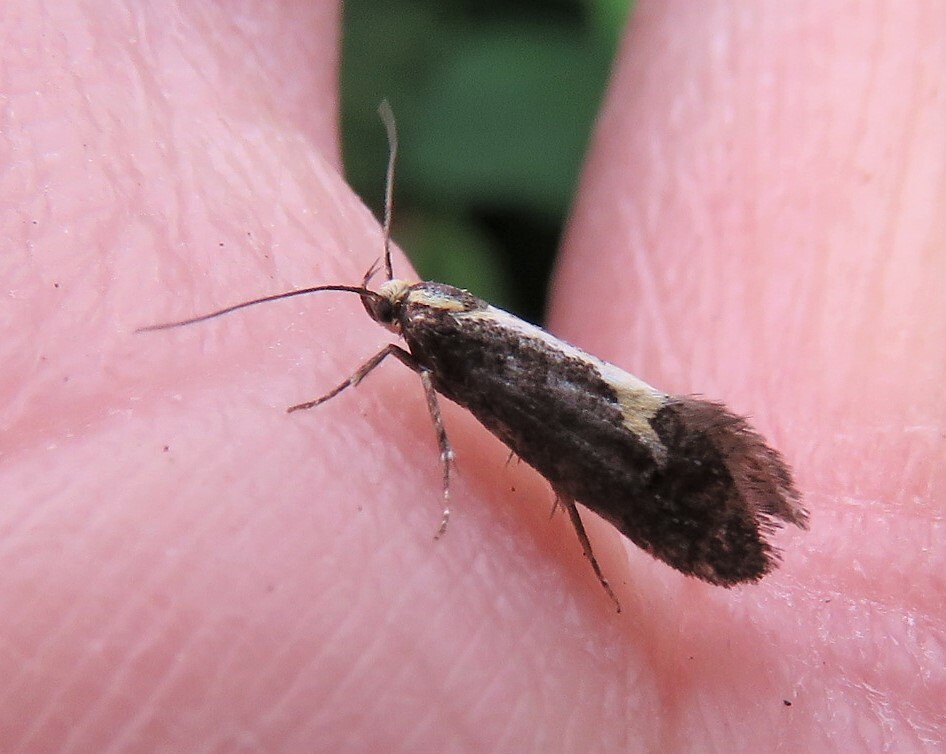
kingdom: Animalia
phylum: Arthropoda
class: Insecta
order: Lepidoptera
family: Oecophoridae
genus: Polix
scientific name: Polix coloradella
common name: Skunk moth
